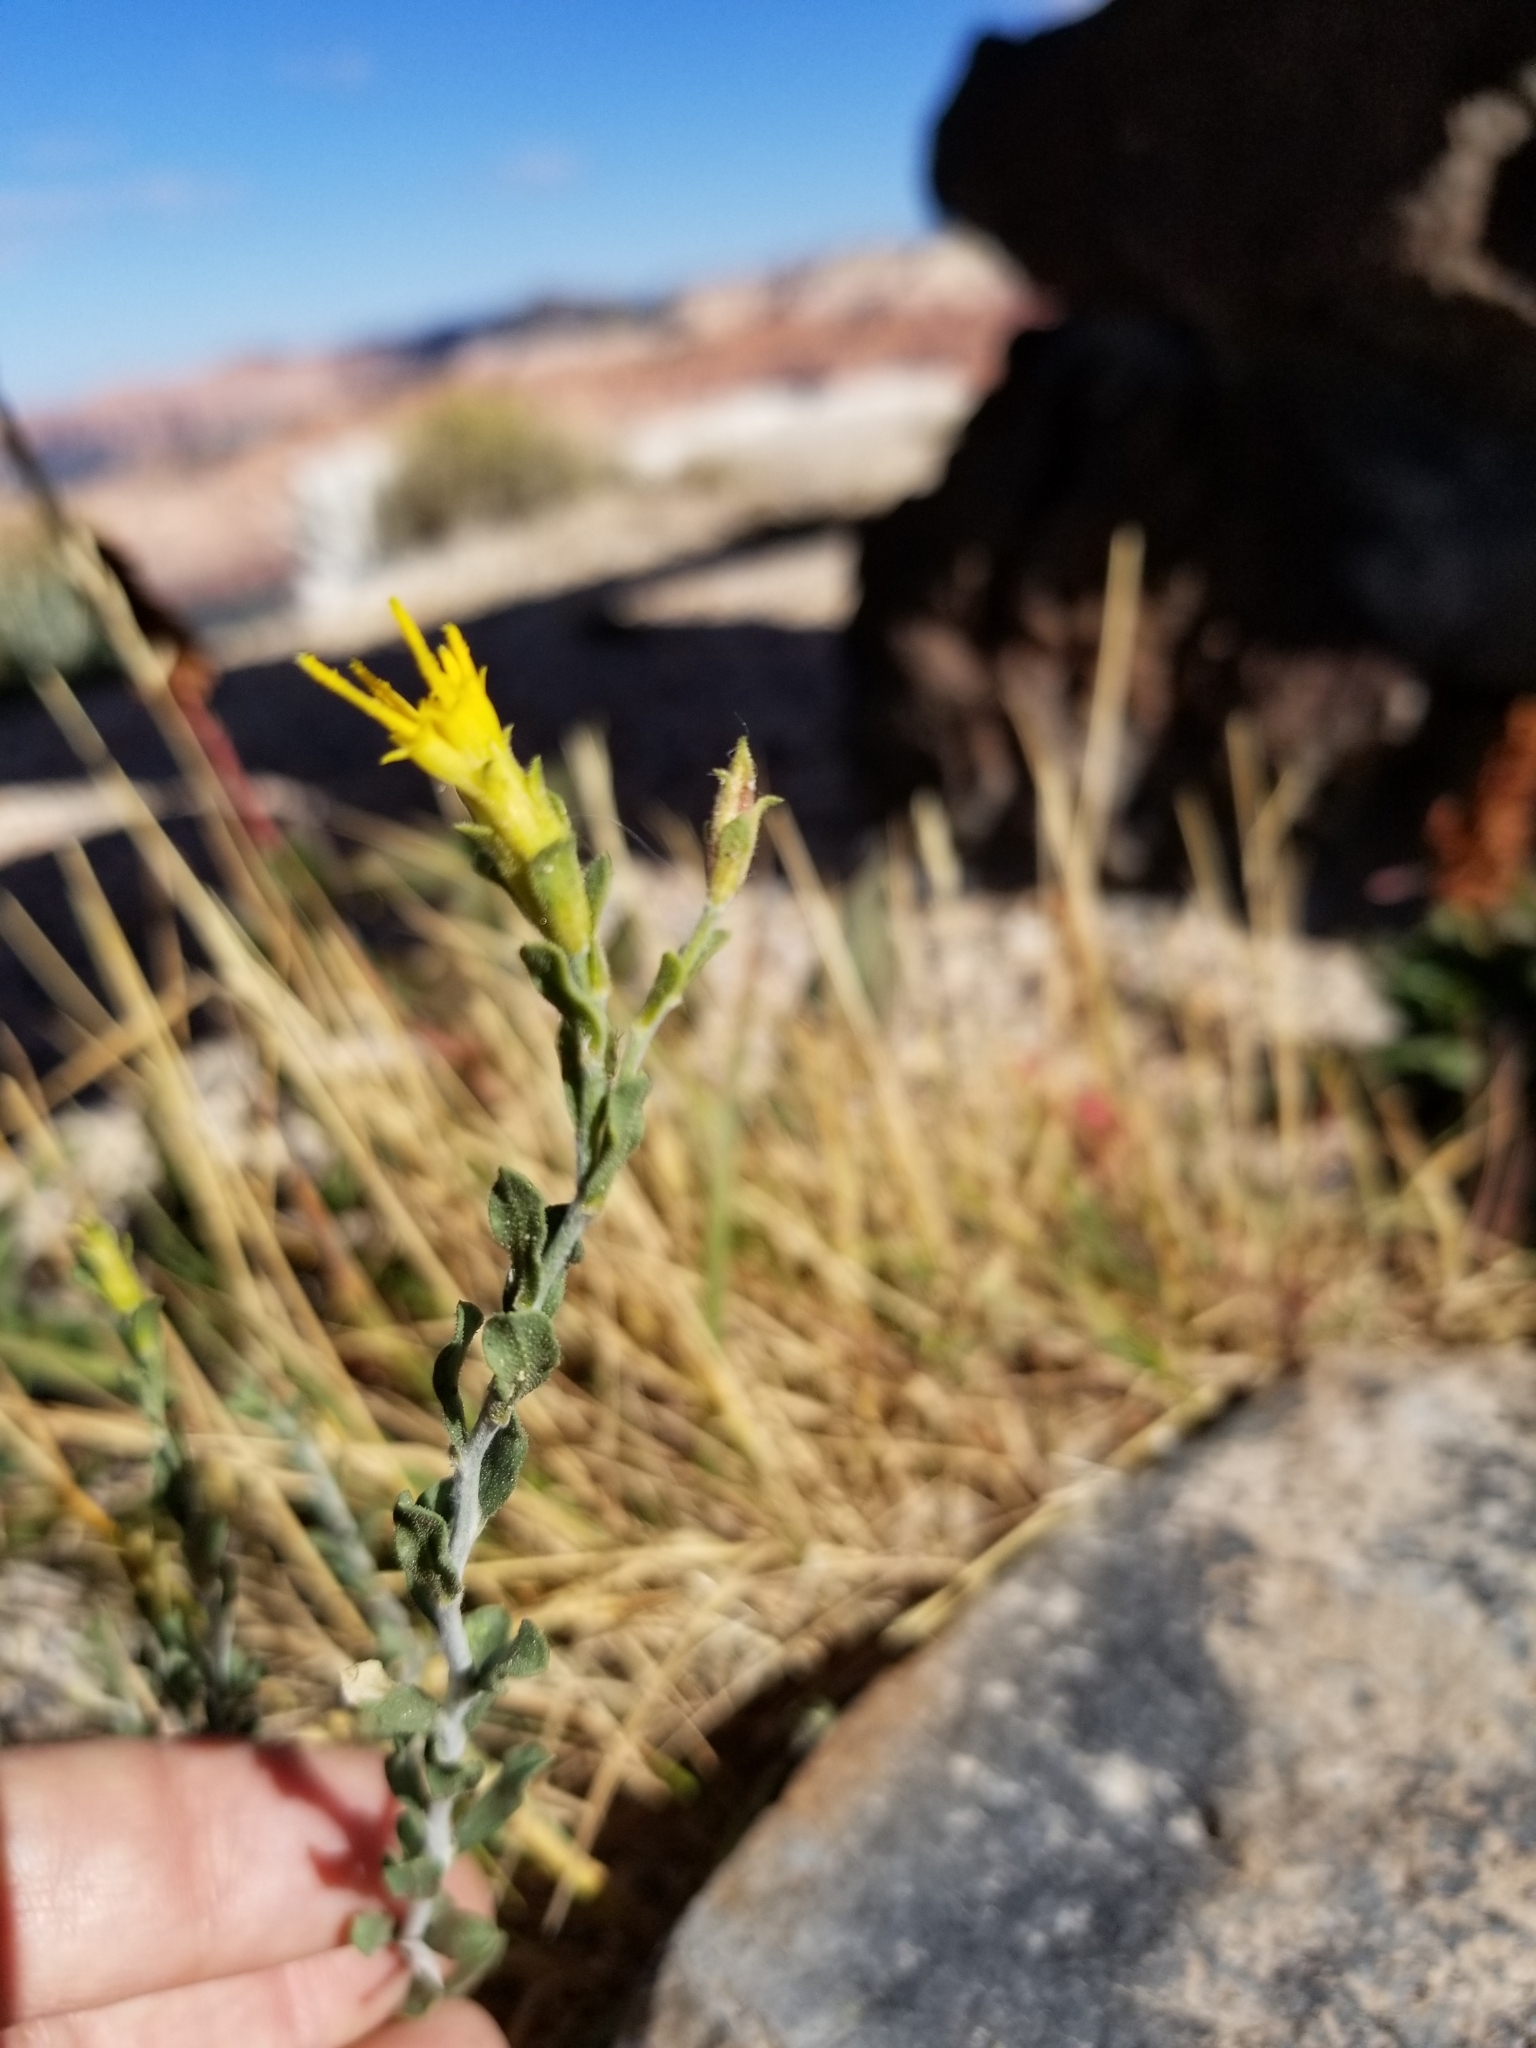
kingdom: Plantae
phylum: Tracheophyta
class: Magnoliopsida
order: Asterales
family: Asteraceae
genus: Ericameria
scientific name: Ericameria discoidea
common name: Sharp-scale goldenweed
